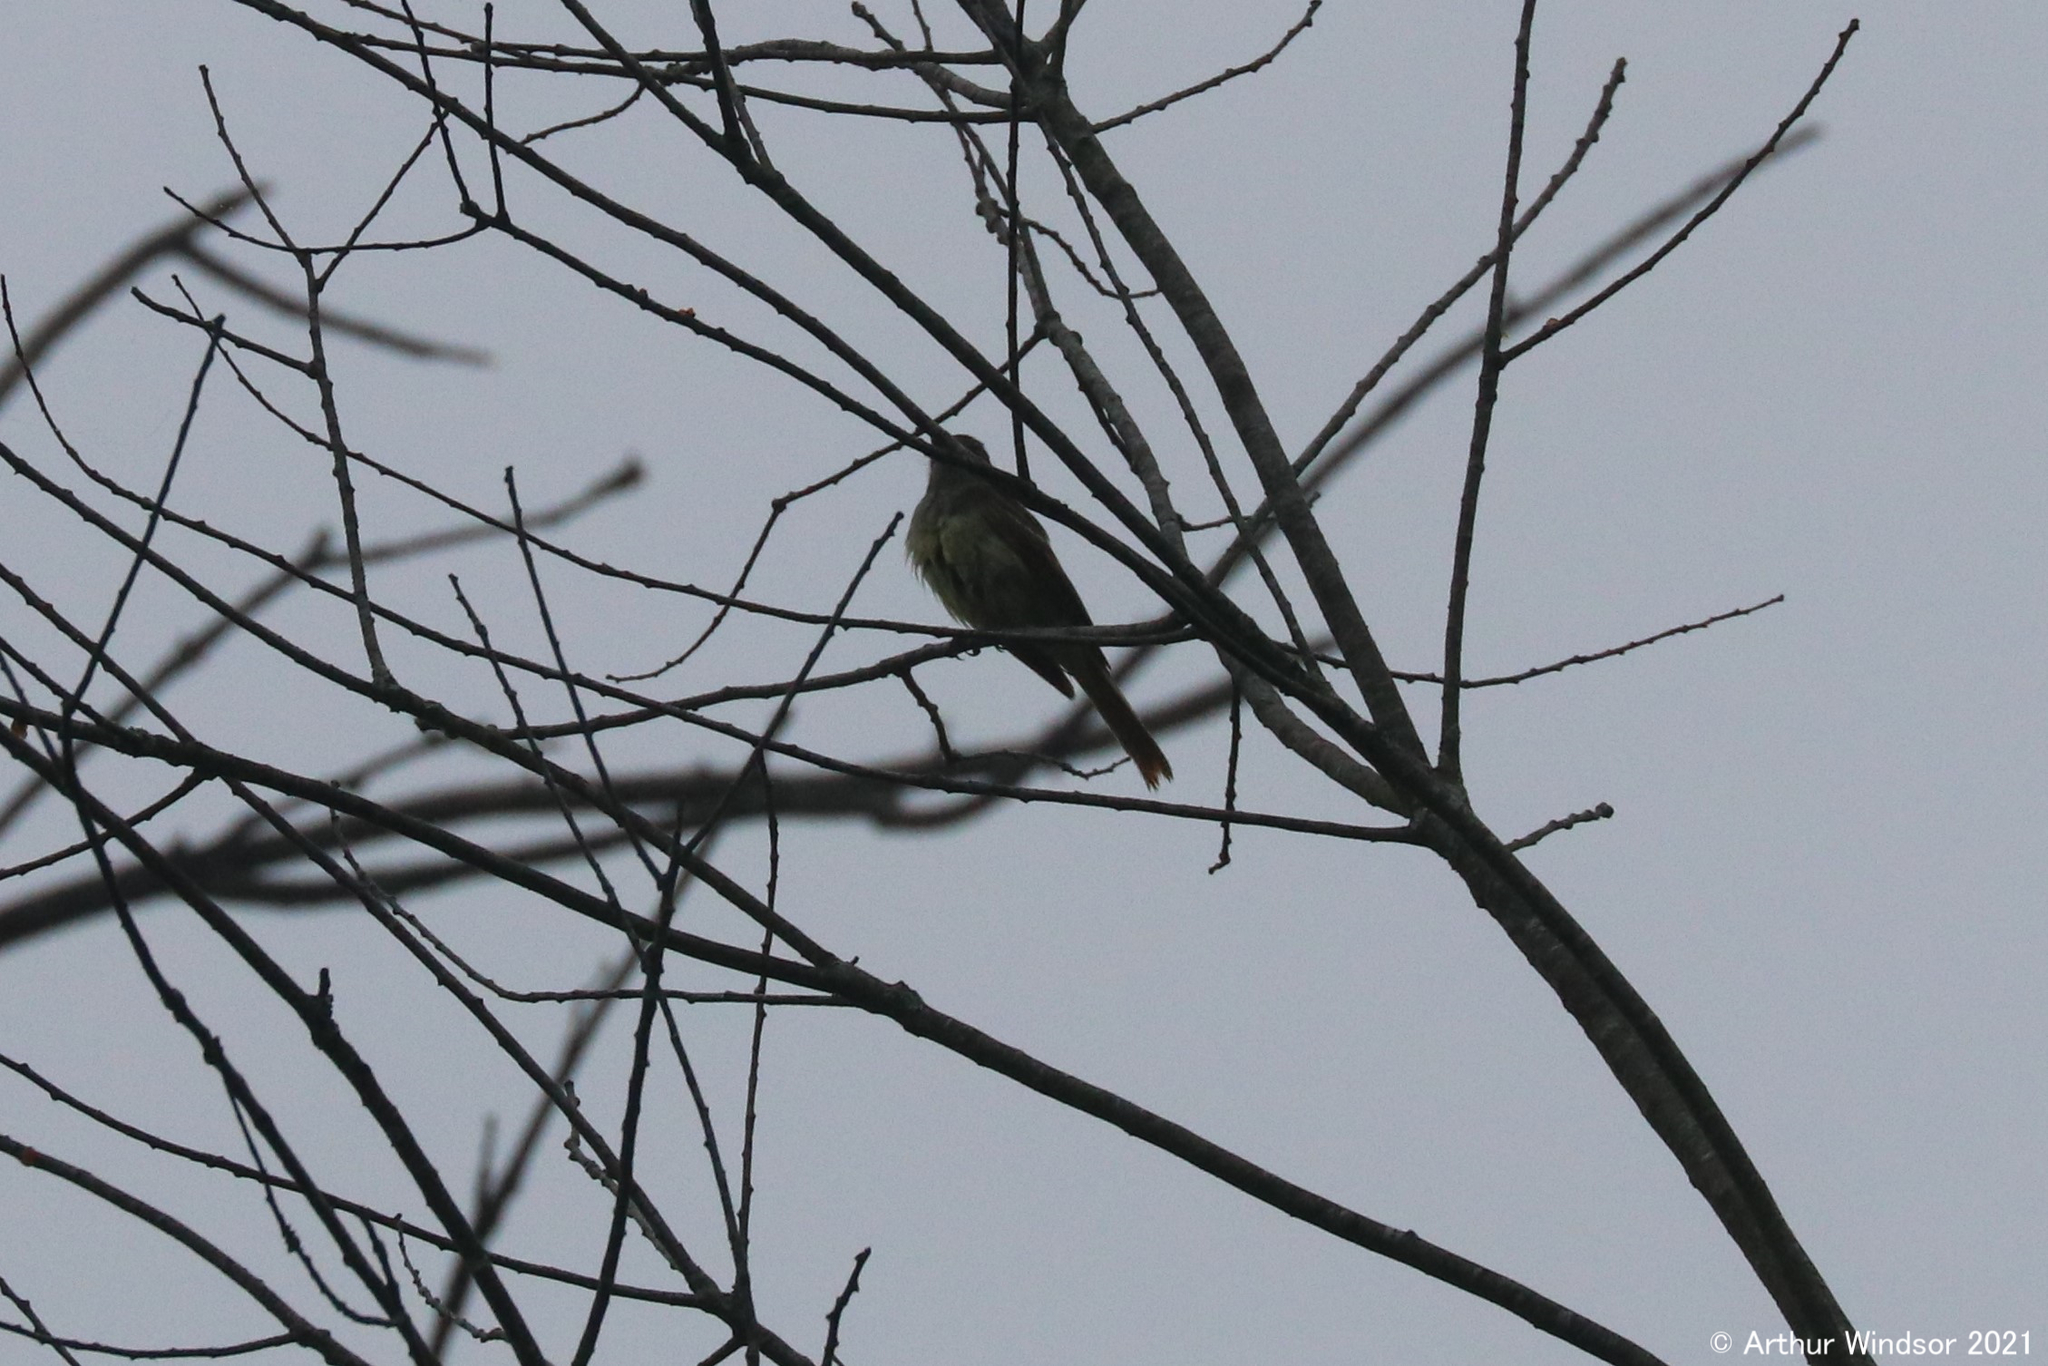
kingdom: Animalia
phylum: Chordata
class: Aves
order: Passeriformes
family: Tyrannidae
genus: Myiarchus
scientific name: Myiarchus crinitus
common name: Great crested flycatcher
